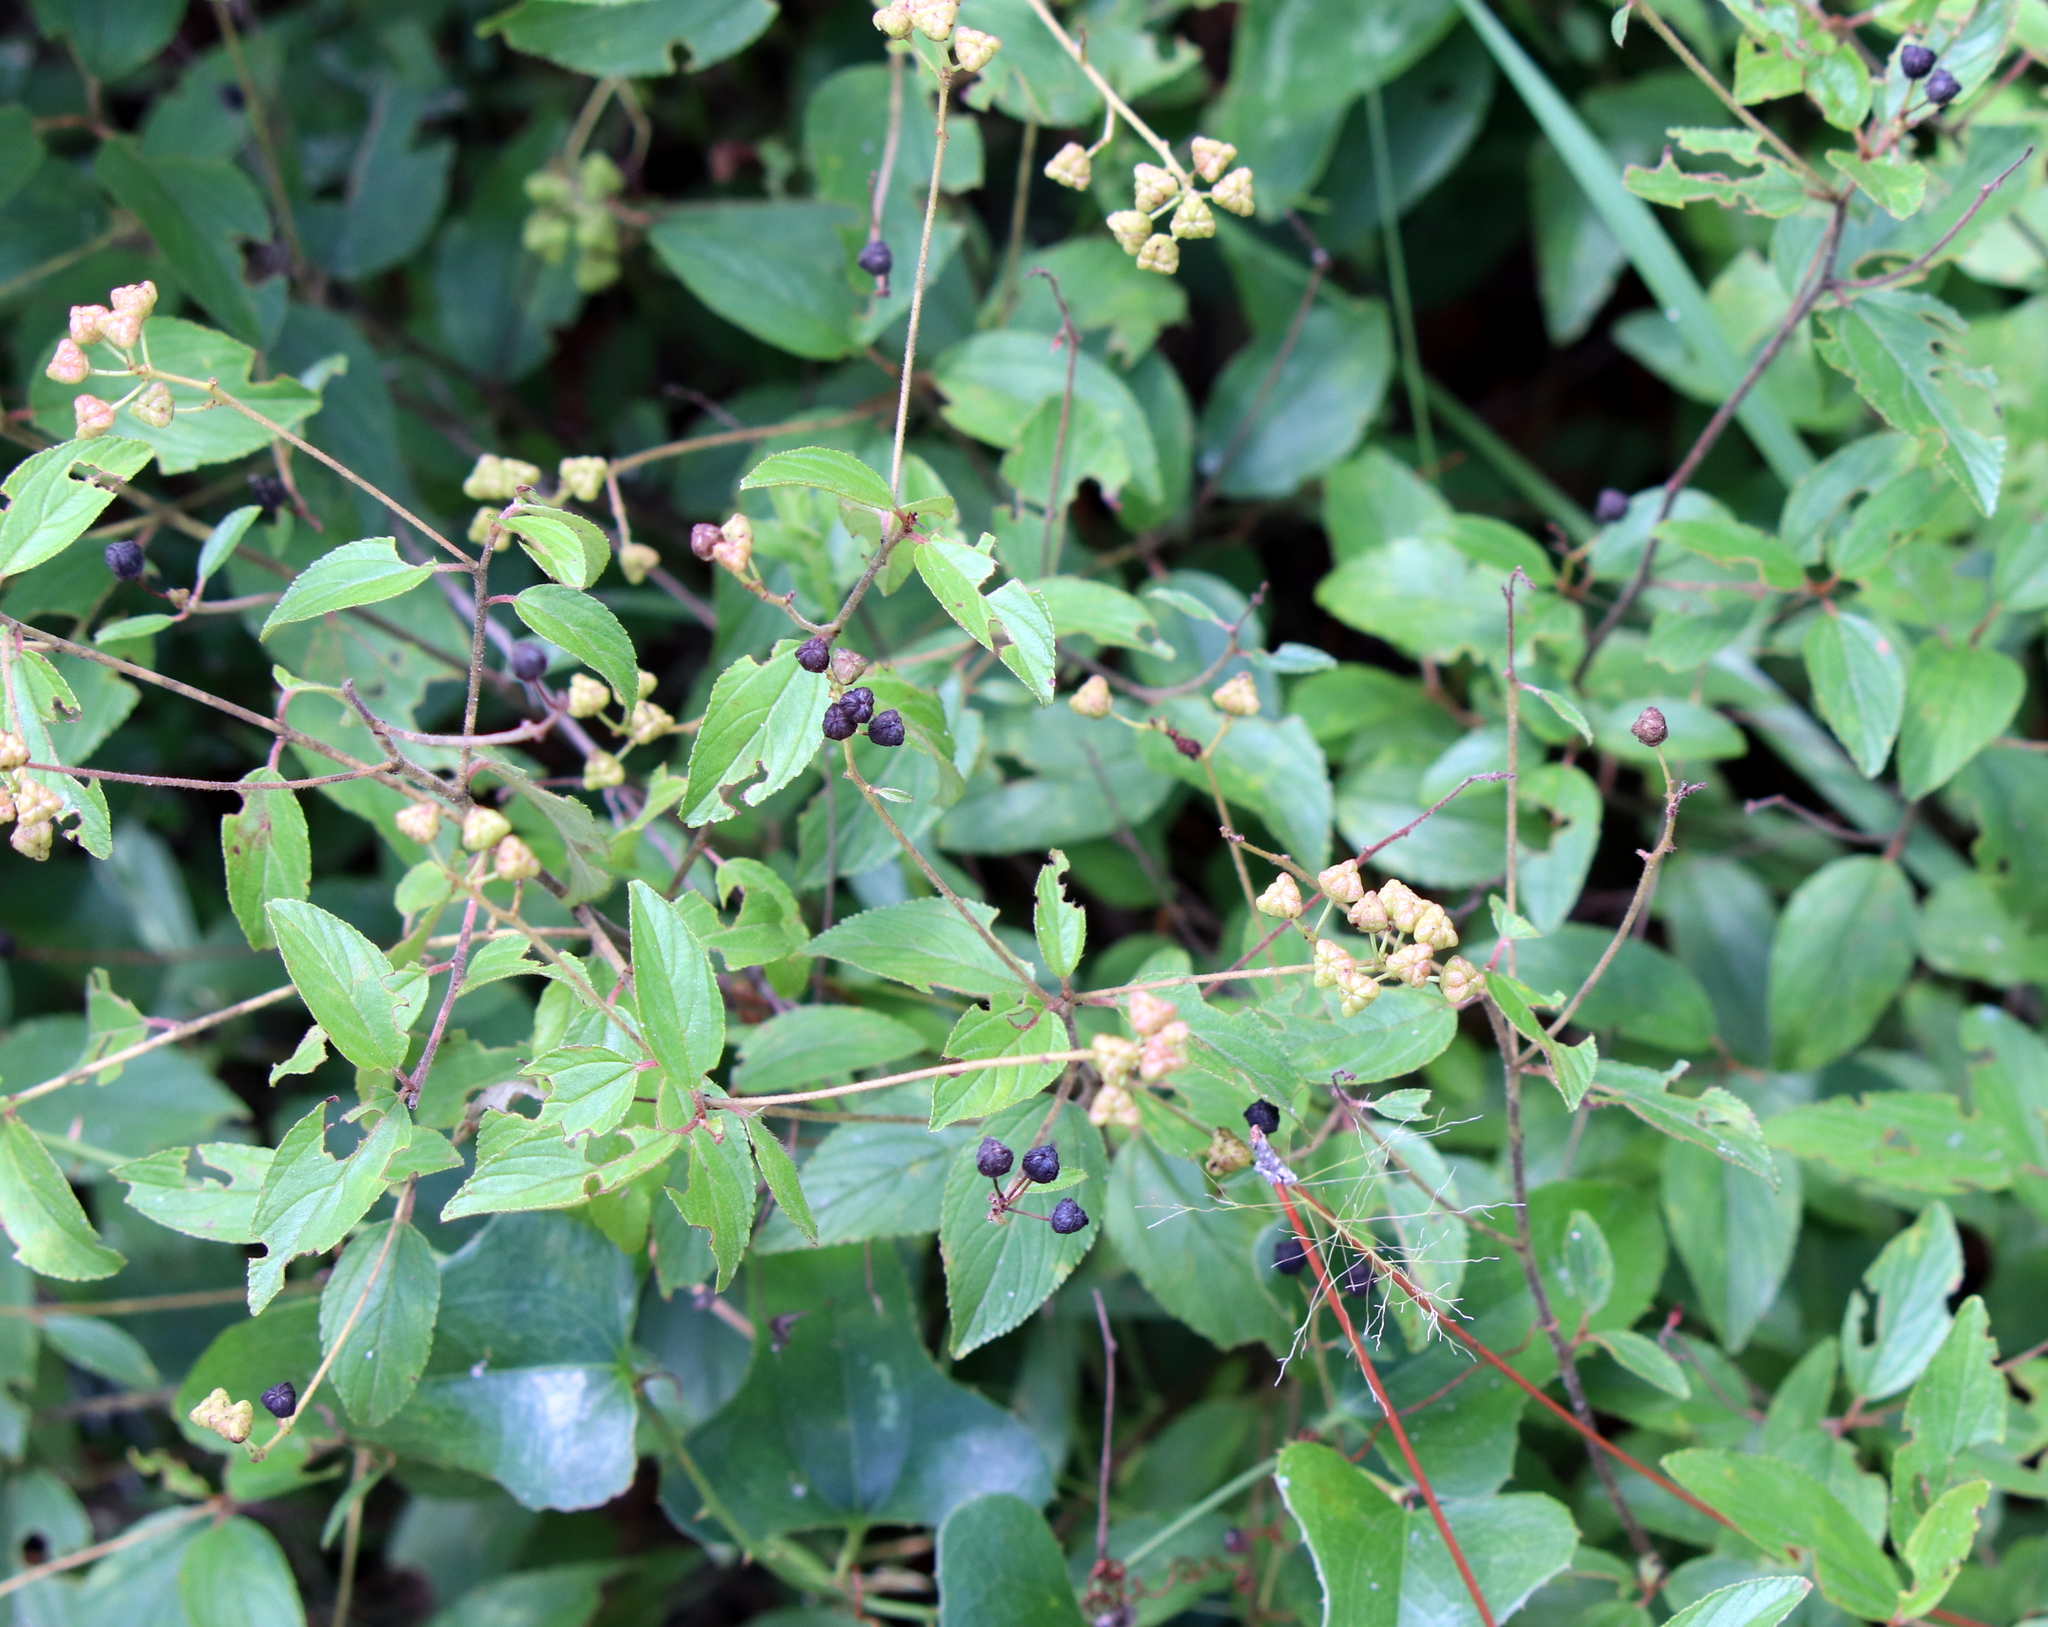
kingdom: Plantae
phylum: Tracheophyta
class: Magnoliopsida
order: Rosales
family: Rhamnaceae
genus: Ceanothus
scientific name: Ceanothus americanus
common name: Redroot
